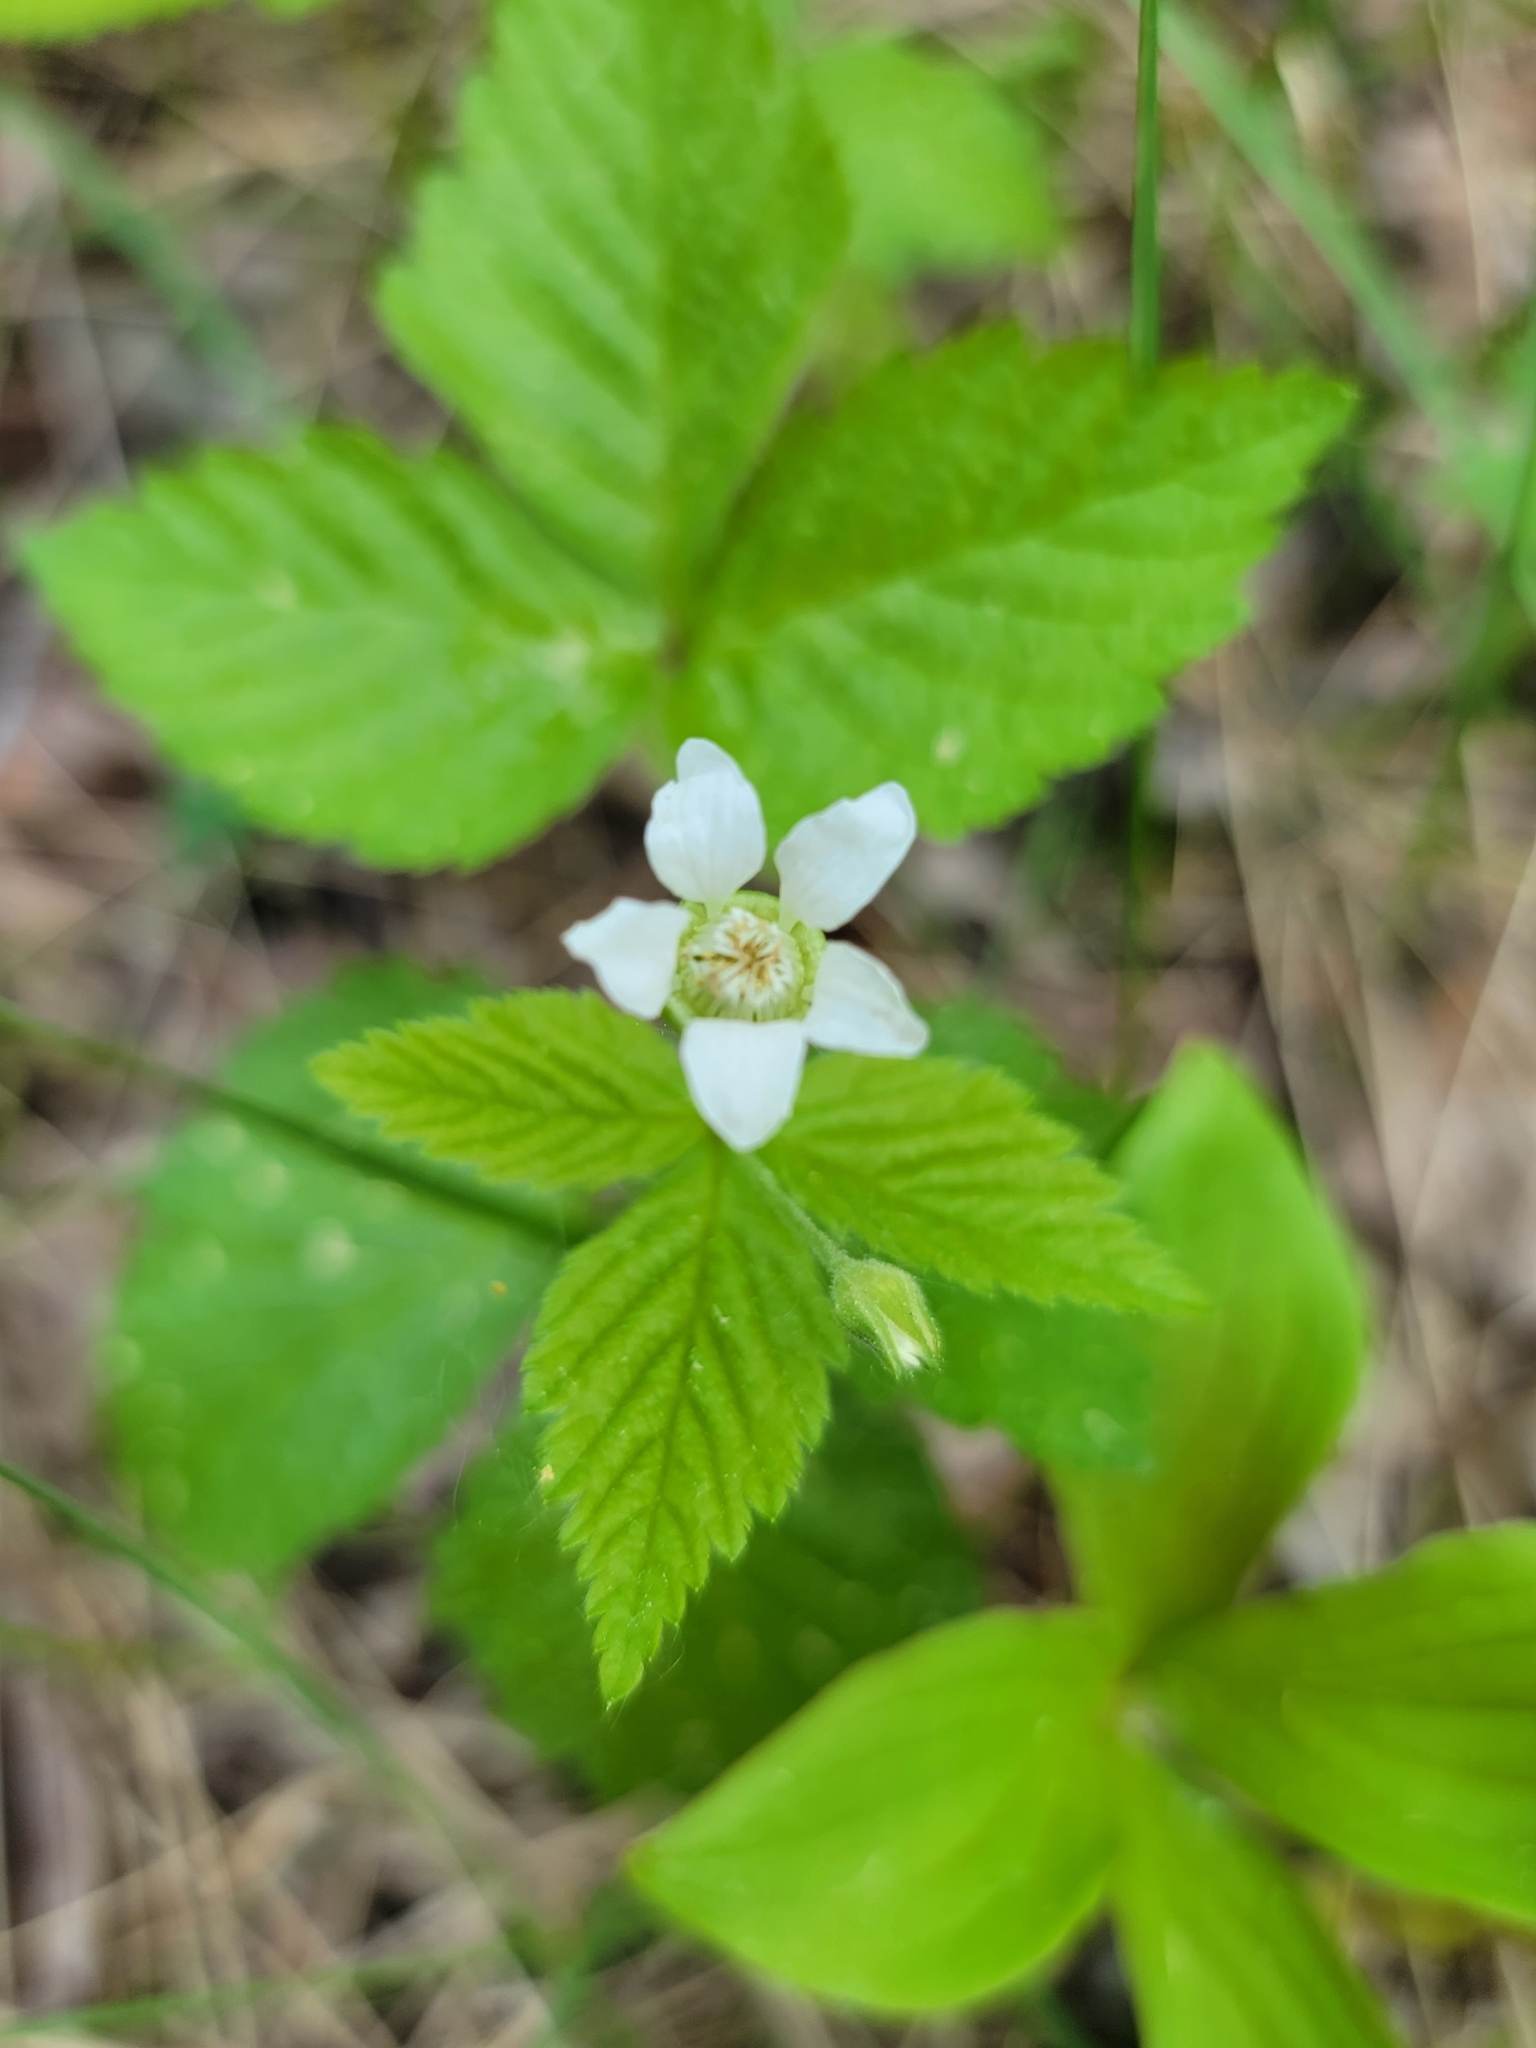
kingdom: Plantae
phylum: Tracheophyta
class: Magnoliopsida
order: Rosales
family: Rosaceae
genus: Rubus
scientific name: Rubus pubescens
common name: Dwarf raspberry
